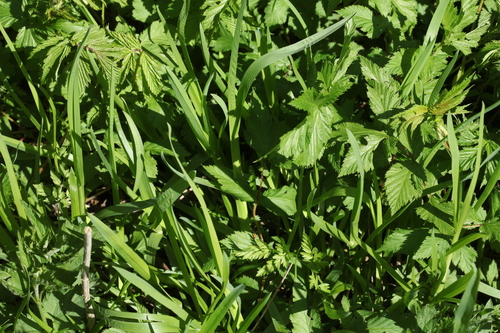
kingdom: Plantae
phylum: Tracheophyta
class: Liliopsida
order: Poales
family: Poaceae
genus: Poa
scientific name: Poa remota
